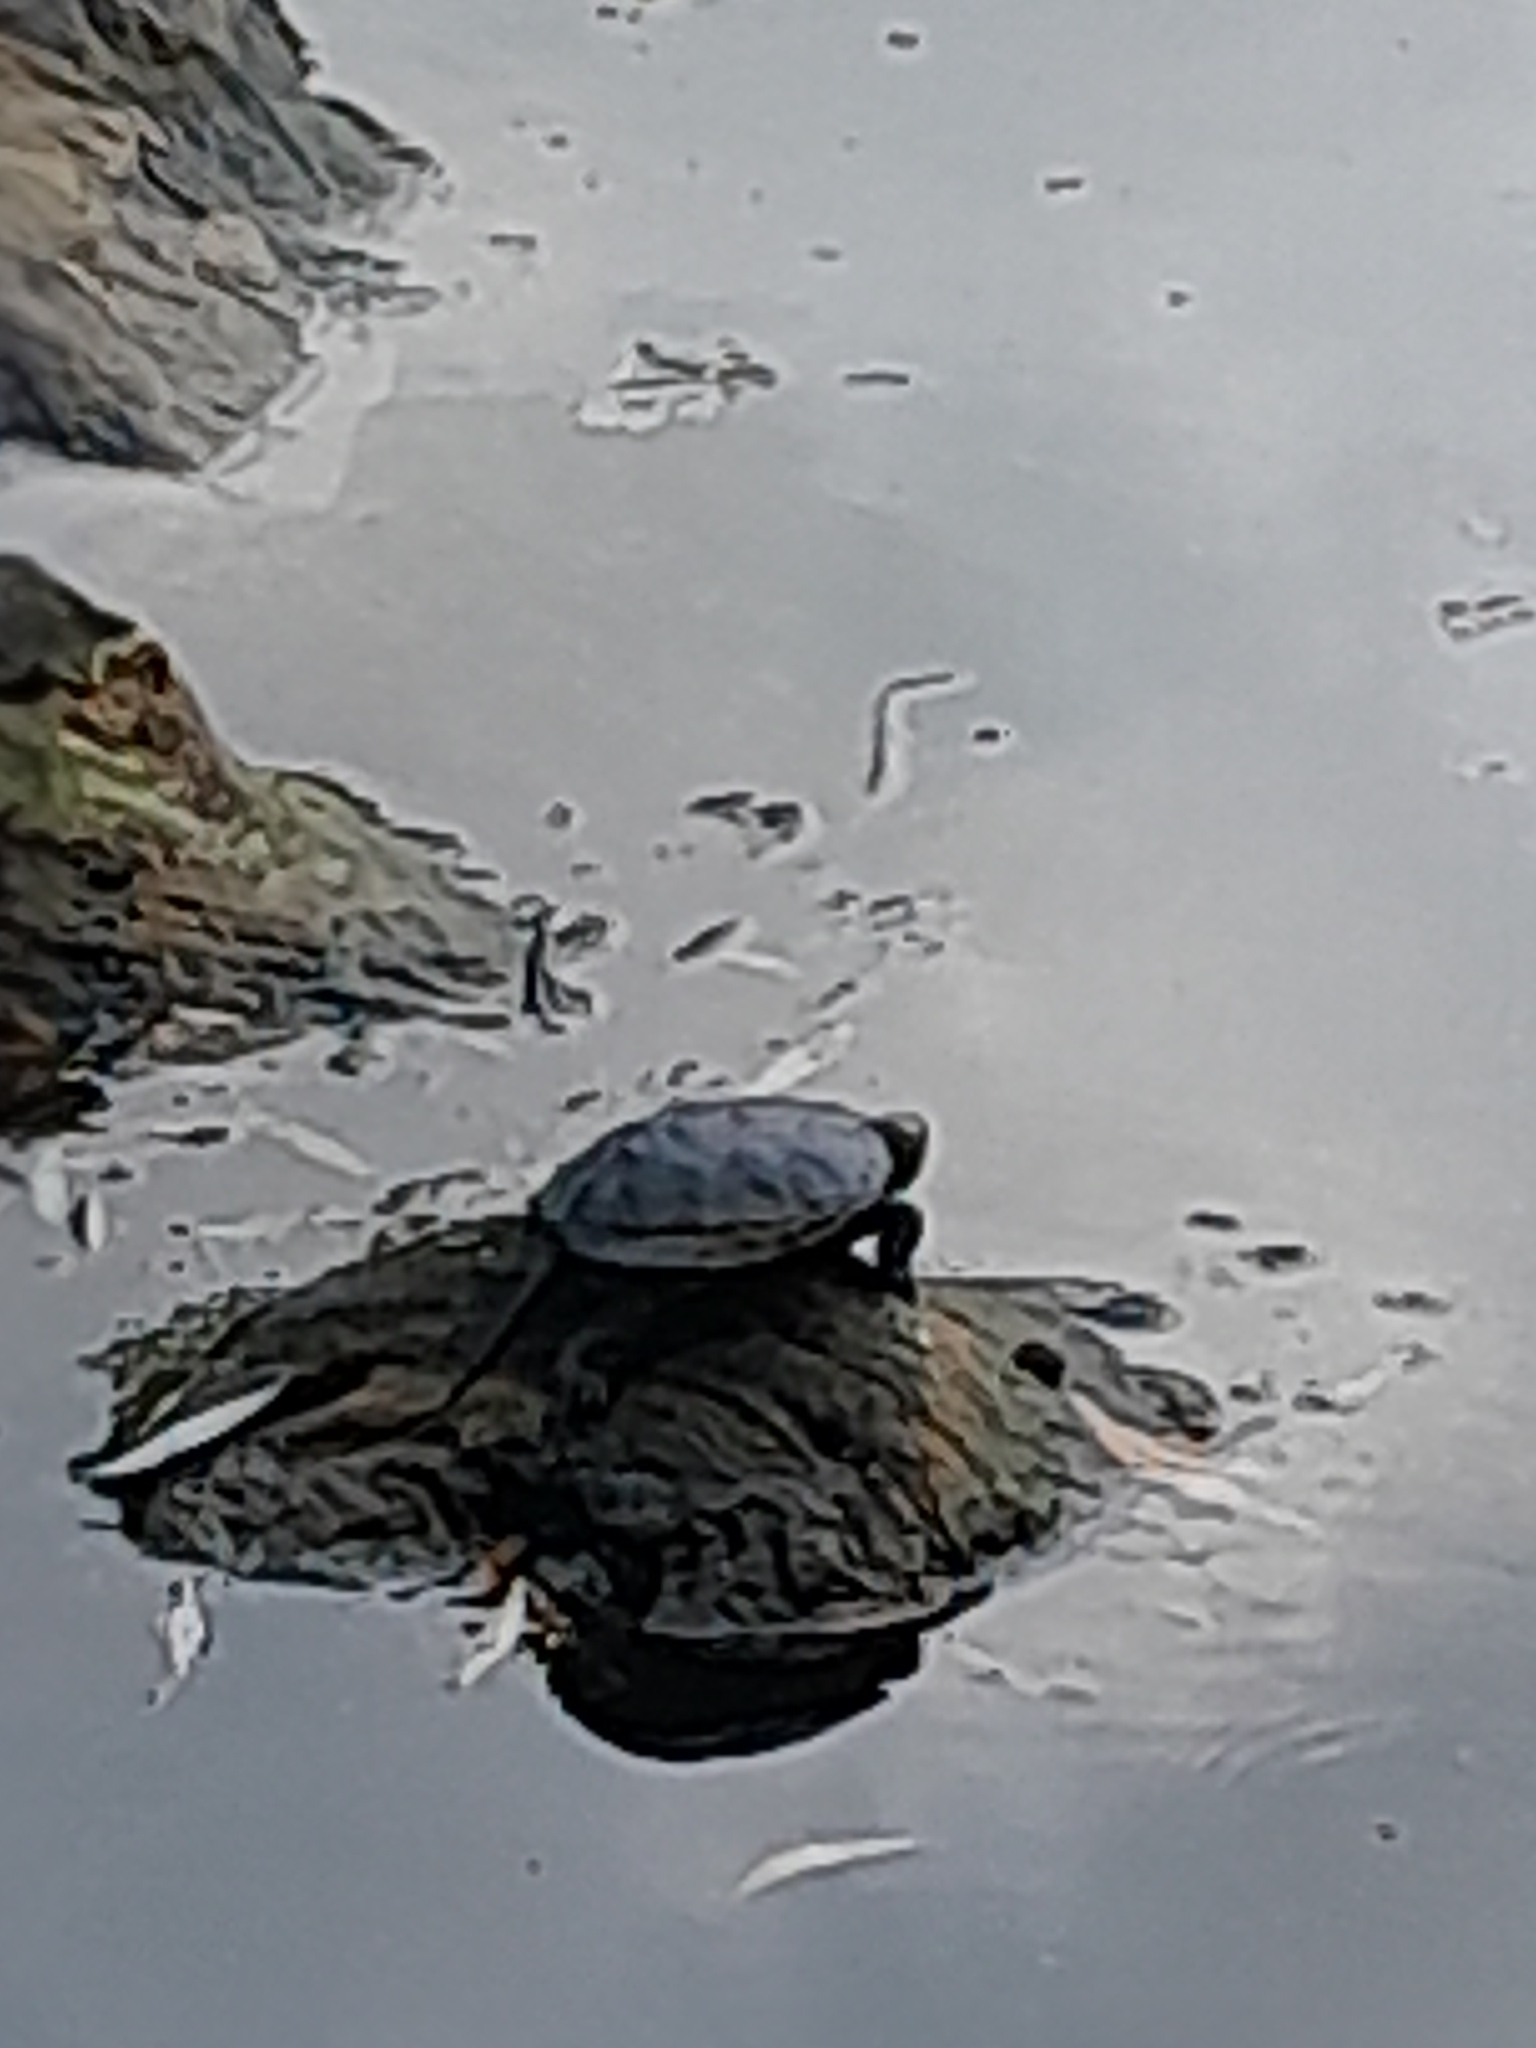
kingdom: Animalia
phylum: Chordata
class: Testudines
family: Emydidae
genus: Emys
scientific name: Emys orbicularis
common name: European pond turtle
